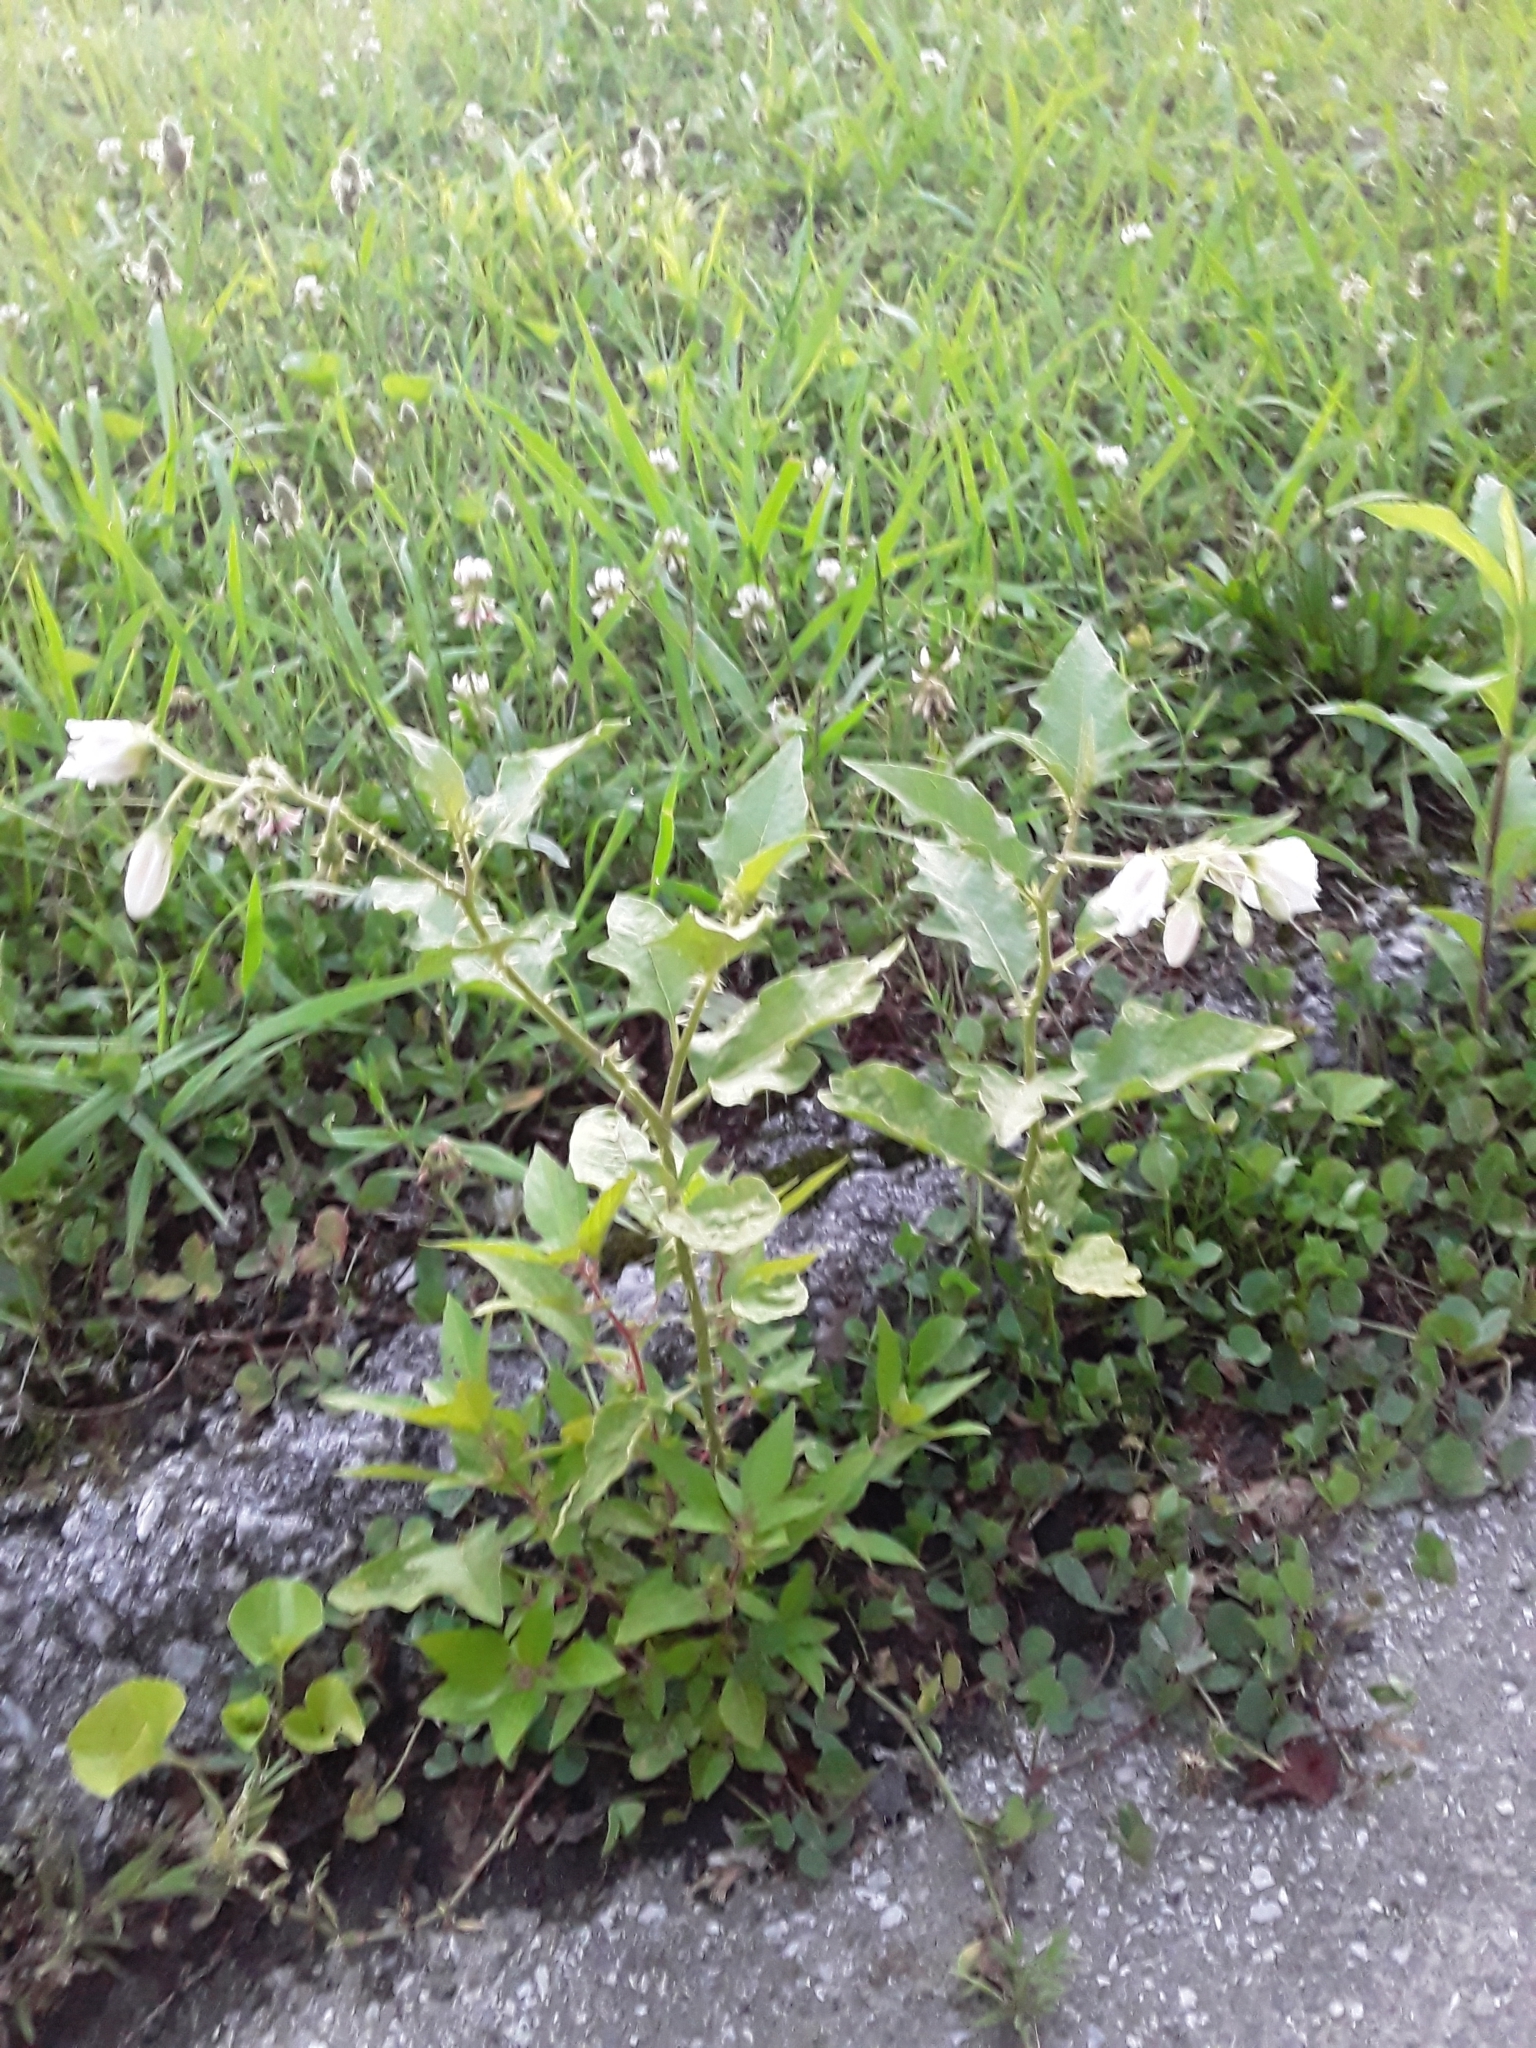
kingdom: Plantae
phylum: Tracheophyta
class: Magnoliopsida
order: Solanales
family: Solanaceae
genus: Solanum
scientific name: Solanum carolinense
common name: Horse-nettle
